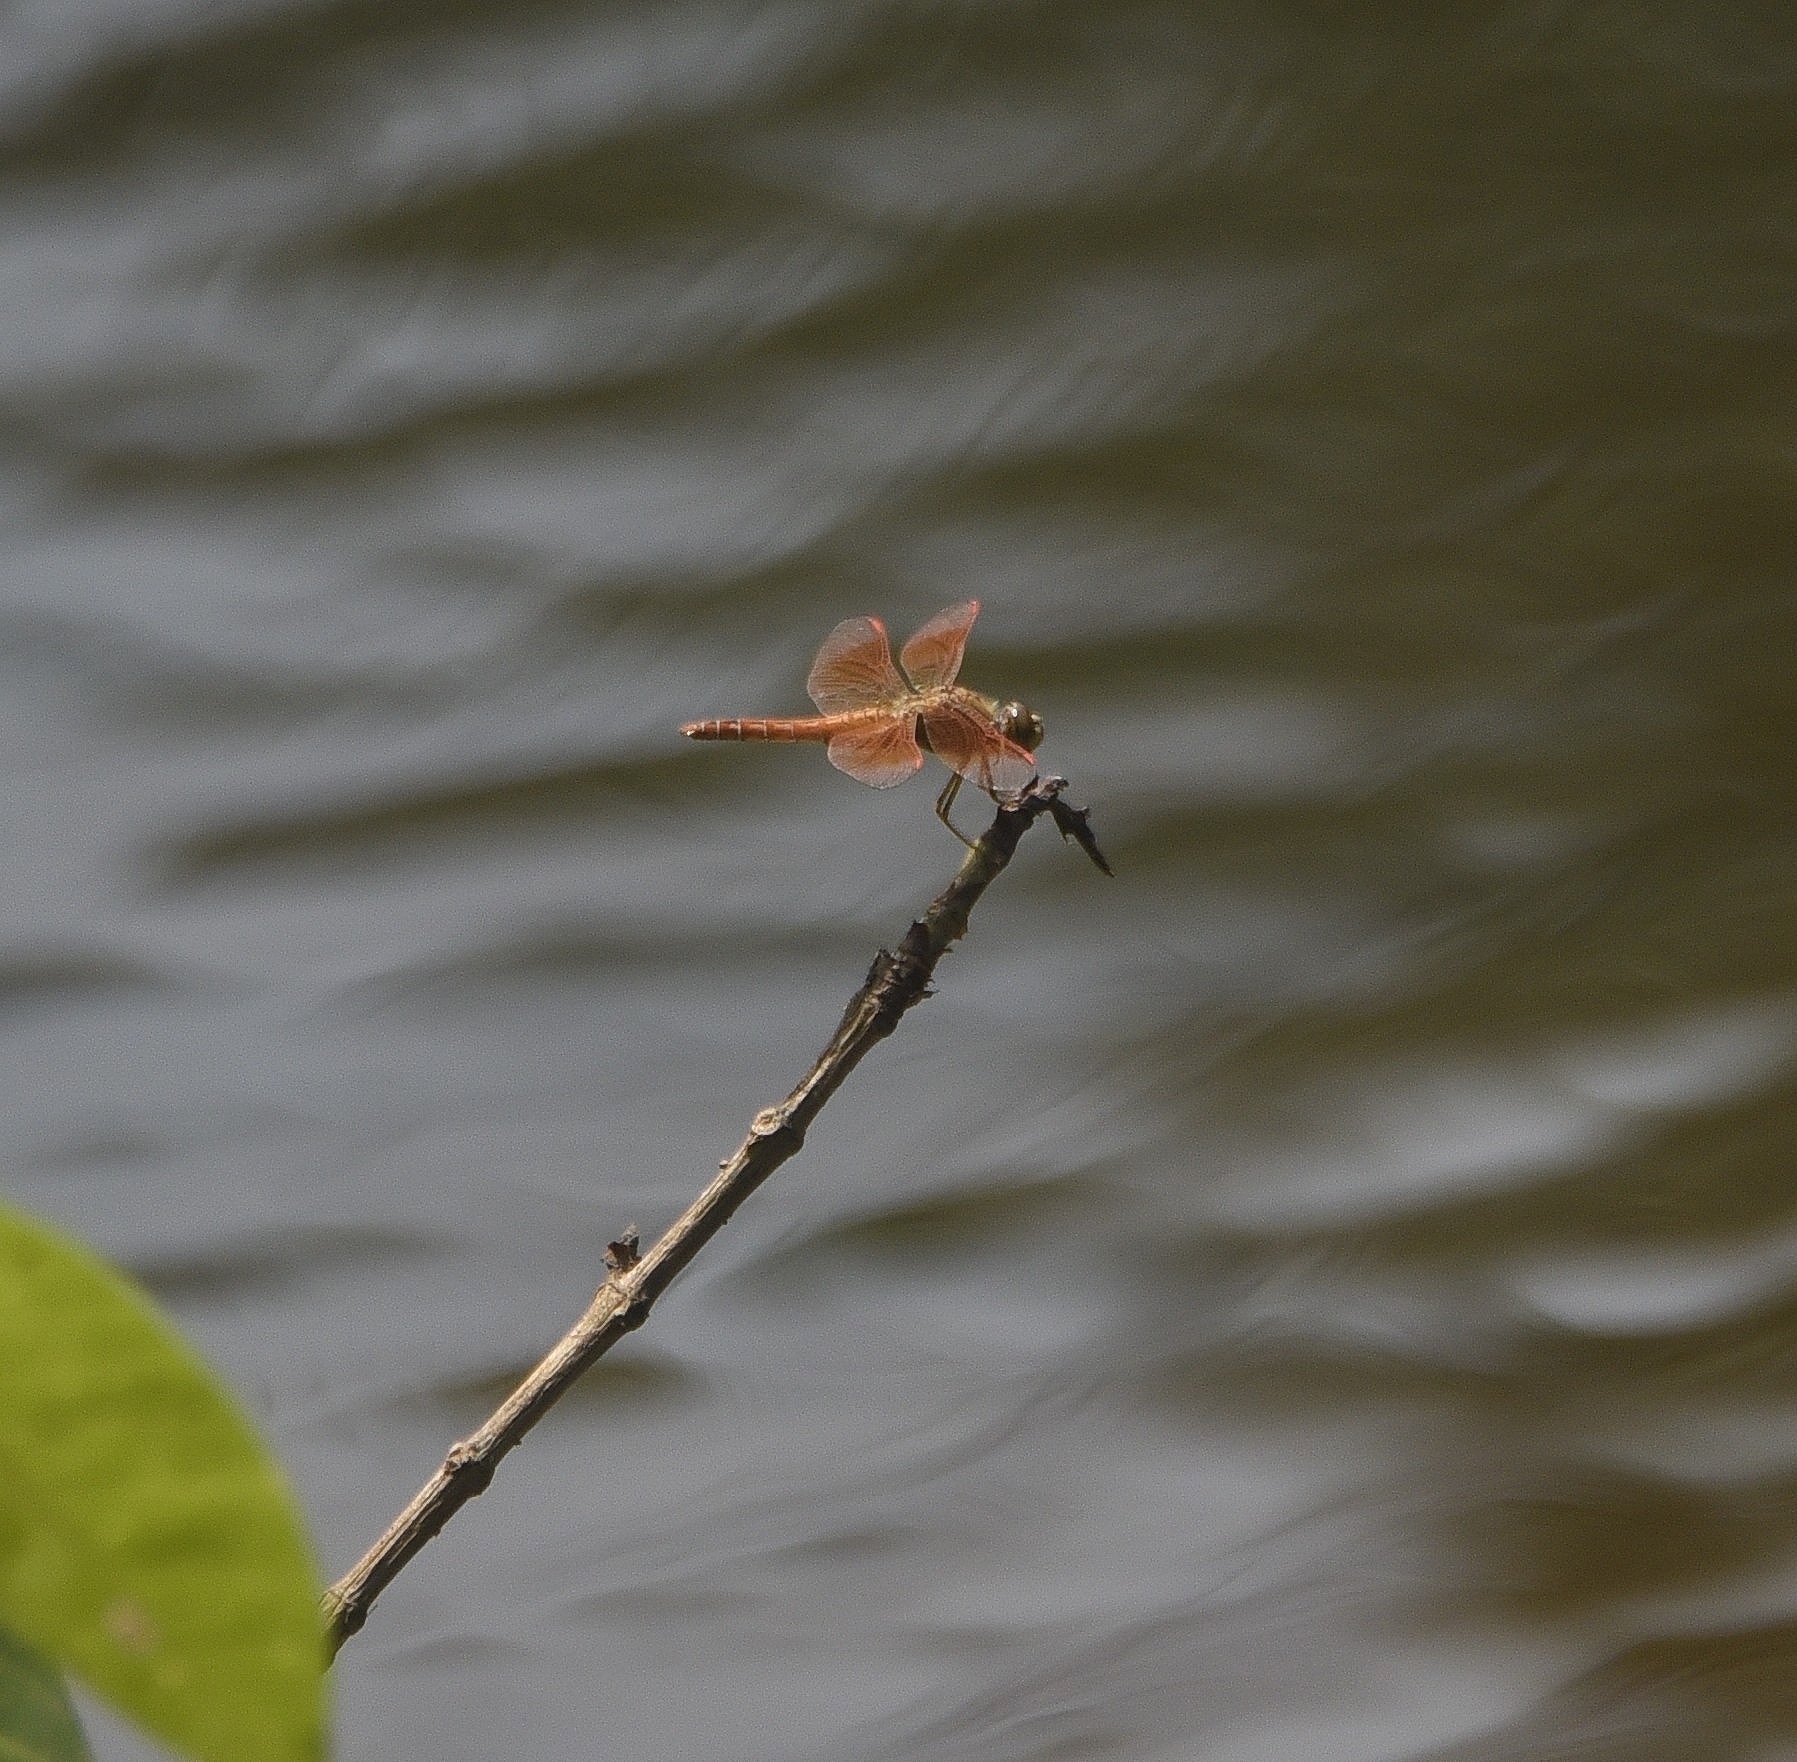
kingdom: Animalia
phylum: Arthropoda
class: Insecta
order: Odonata
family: Libellulidae
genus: Brachythemis
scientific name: Brachythemis contaminata
